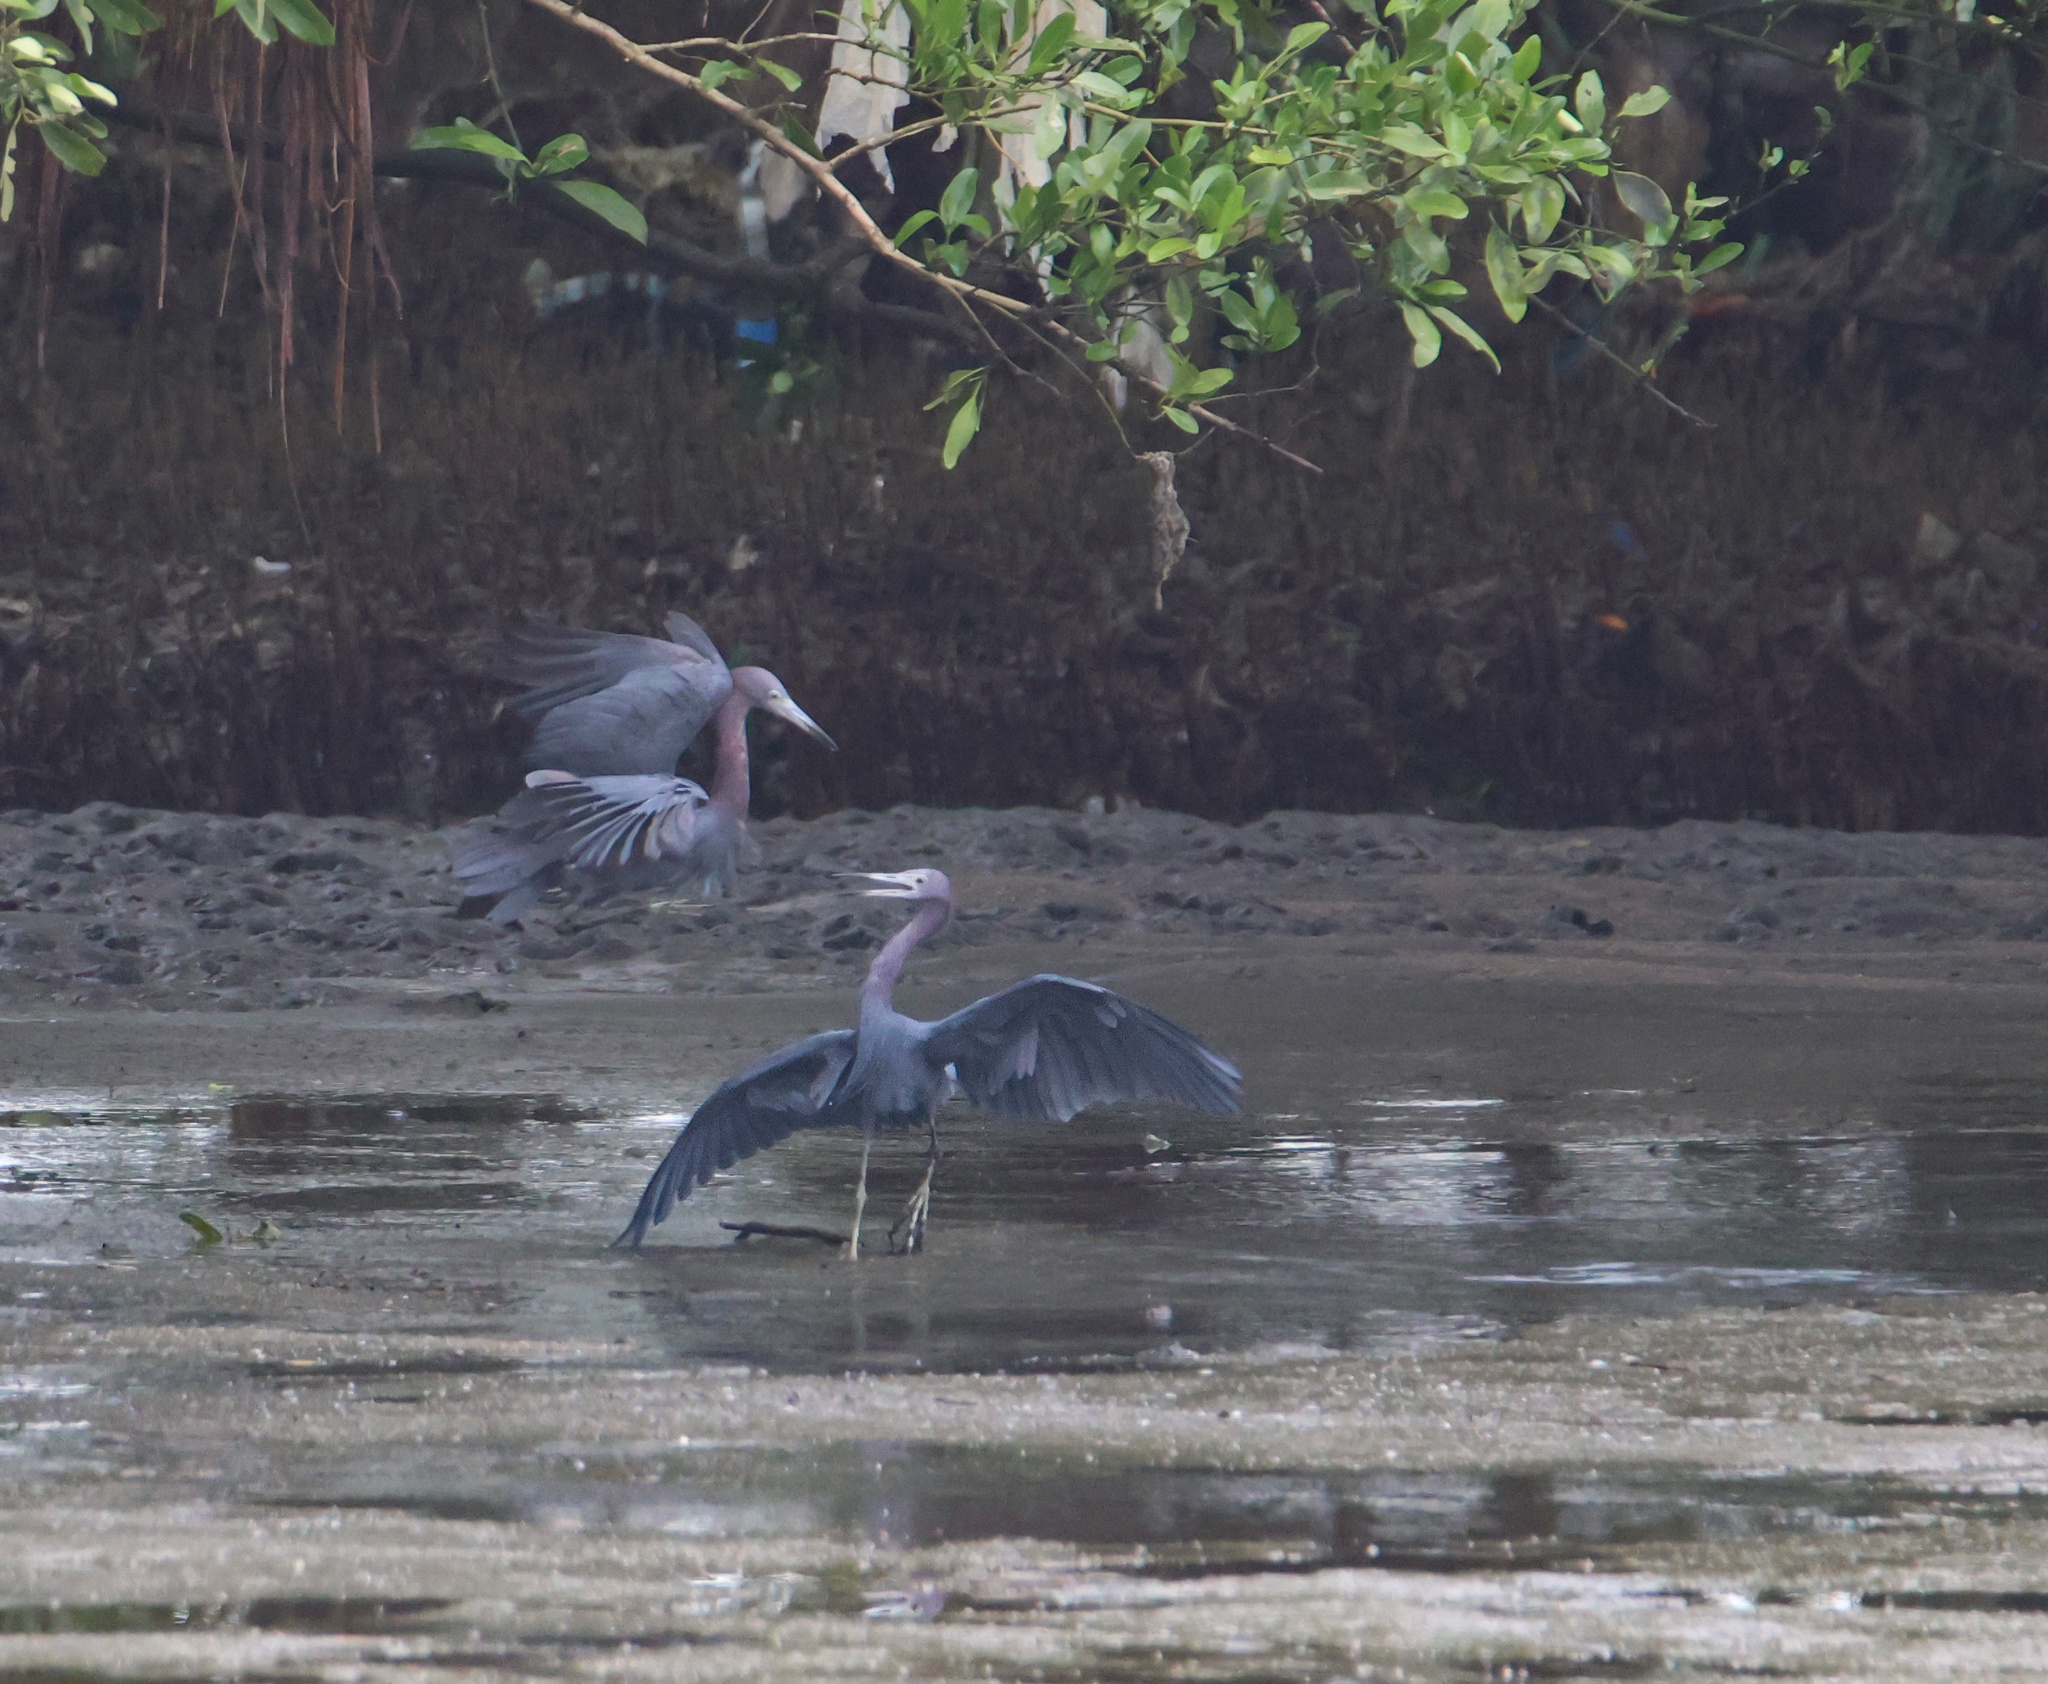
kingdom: Animalia
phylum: Chordata
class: Aves
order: Pelecaniformes
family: Ardeidae
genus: Egretta
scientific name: Egretta caerulea
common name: Little blue heron
